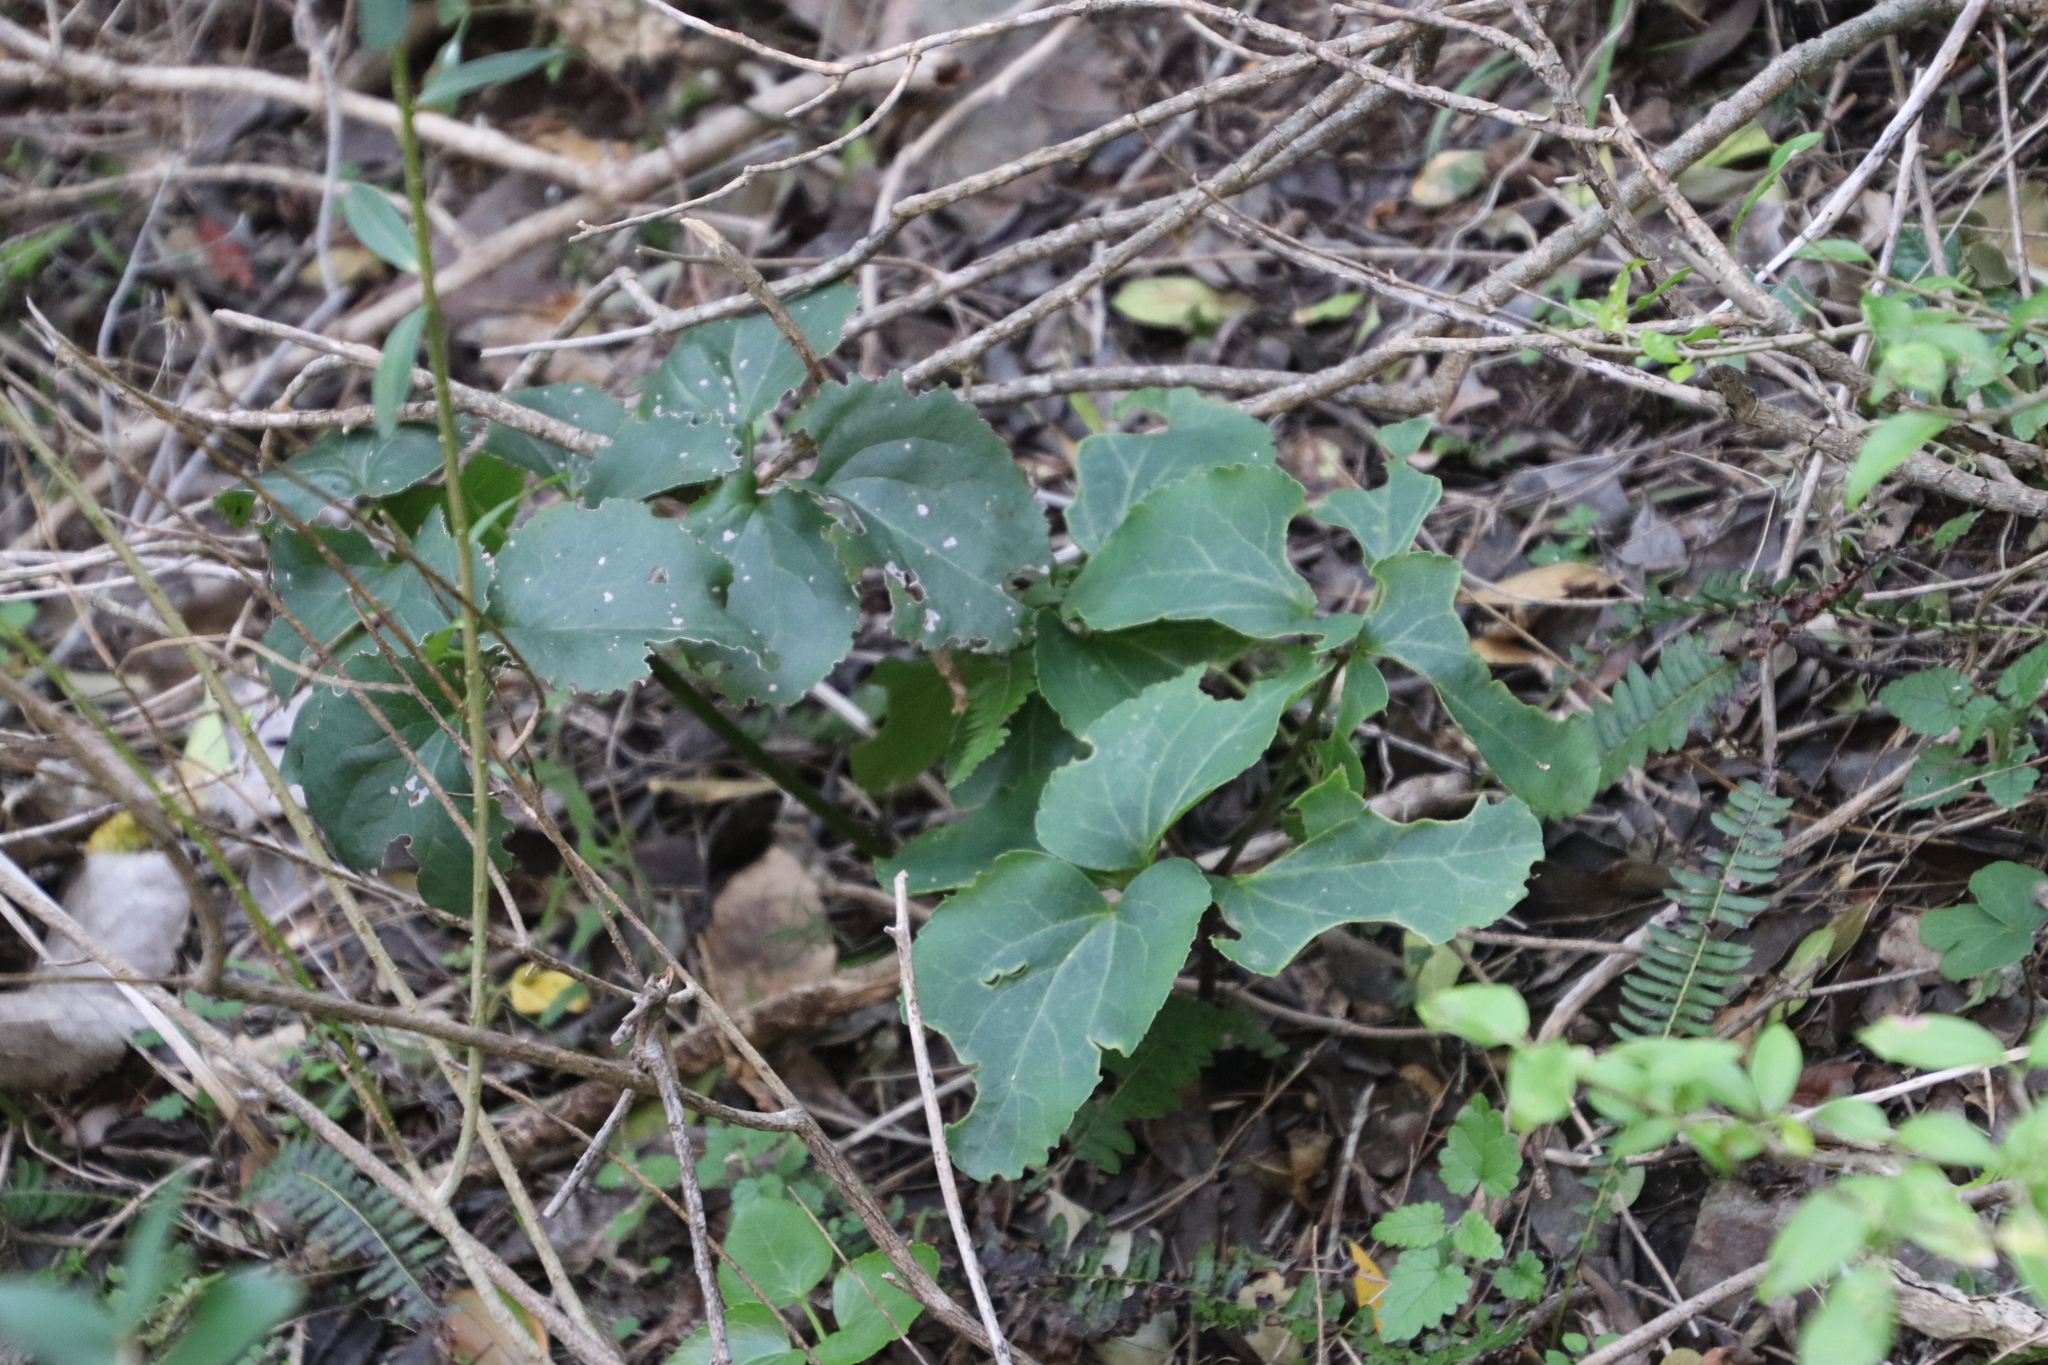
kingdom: Plantae
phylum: Tracheophyta
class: Magnoliopsida
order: Ranunculales
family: Ranunculaceae
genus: Knowltonia
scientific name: Knowltonia vesicatoria
